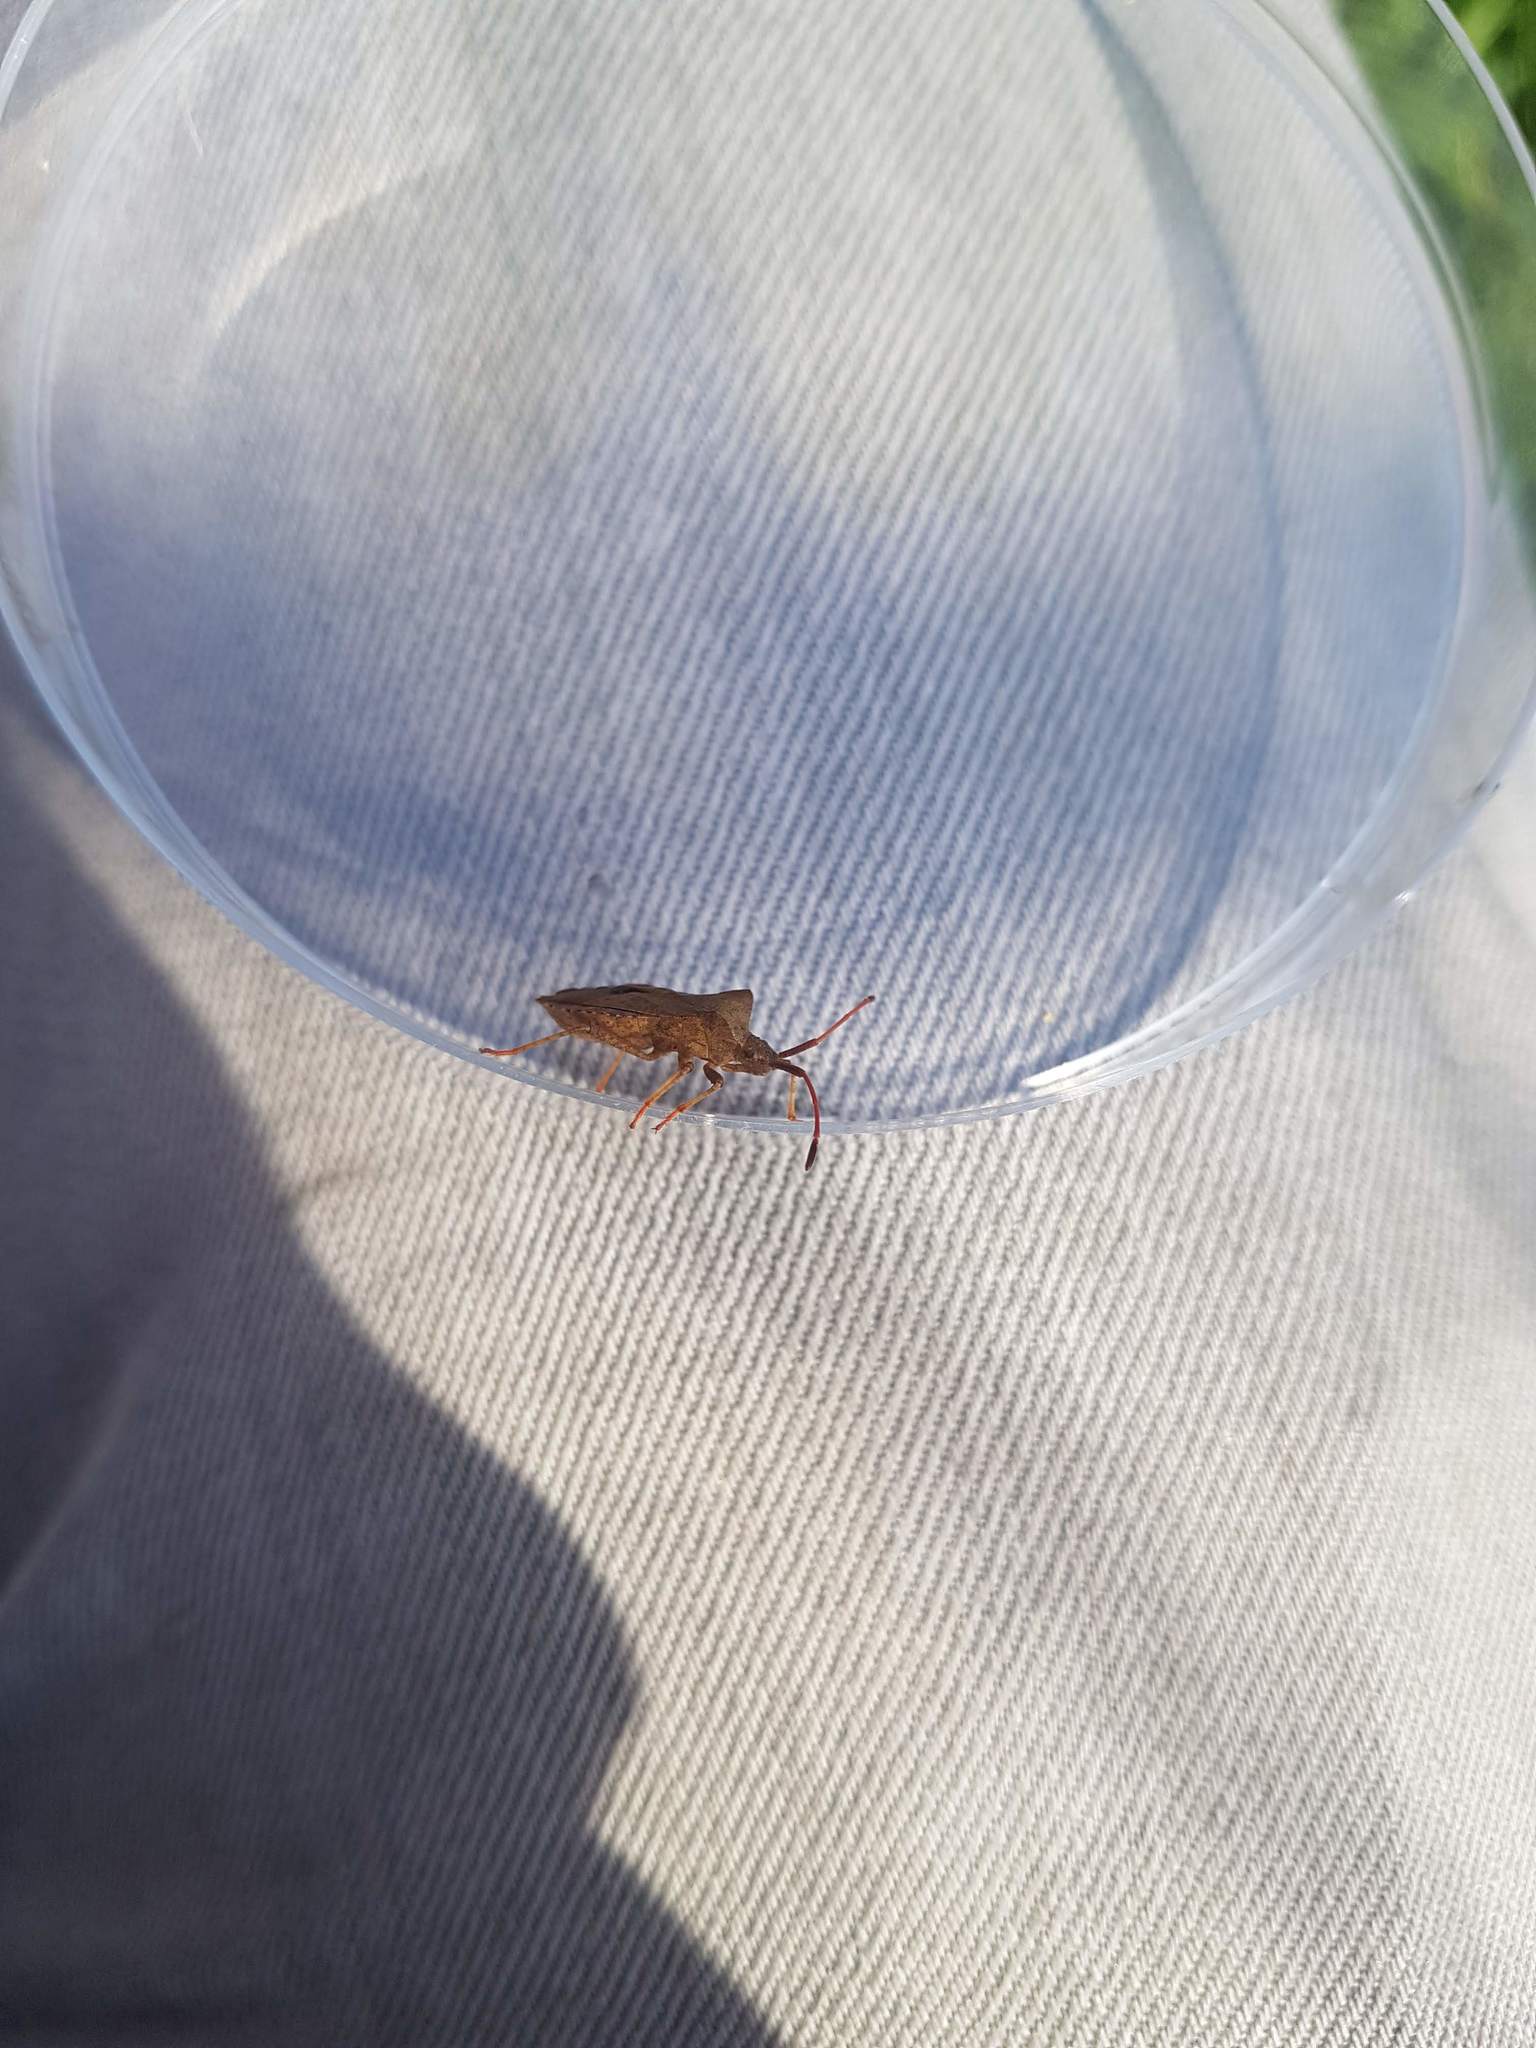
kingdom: Animalia
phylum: Arthropoda
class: Insecta
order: Hemiptera
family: Coreidae
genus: Coreus
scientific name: Coreus marginatus
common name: Dock bug
